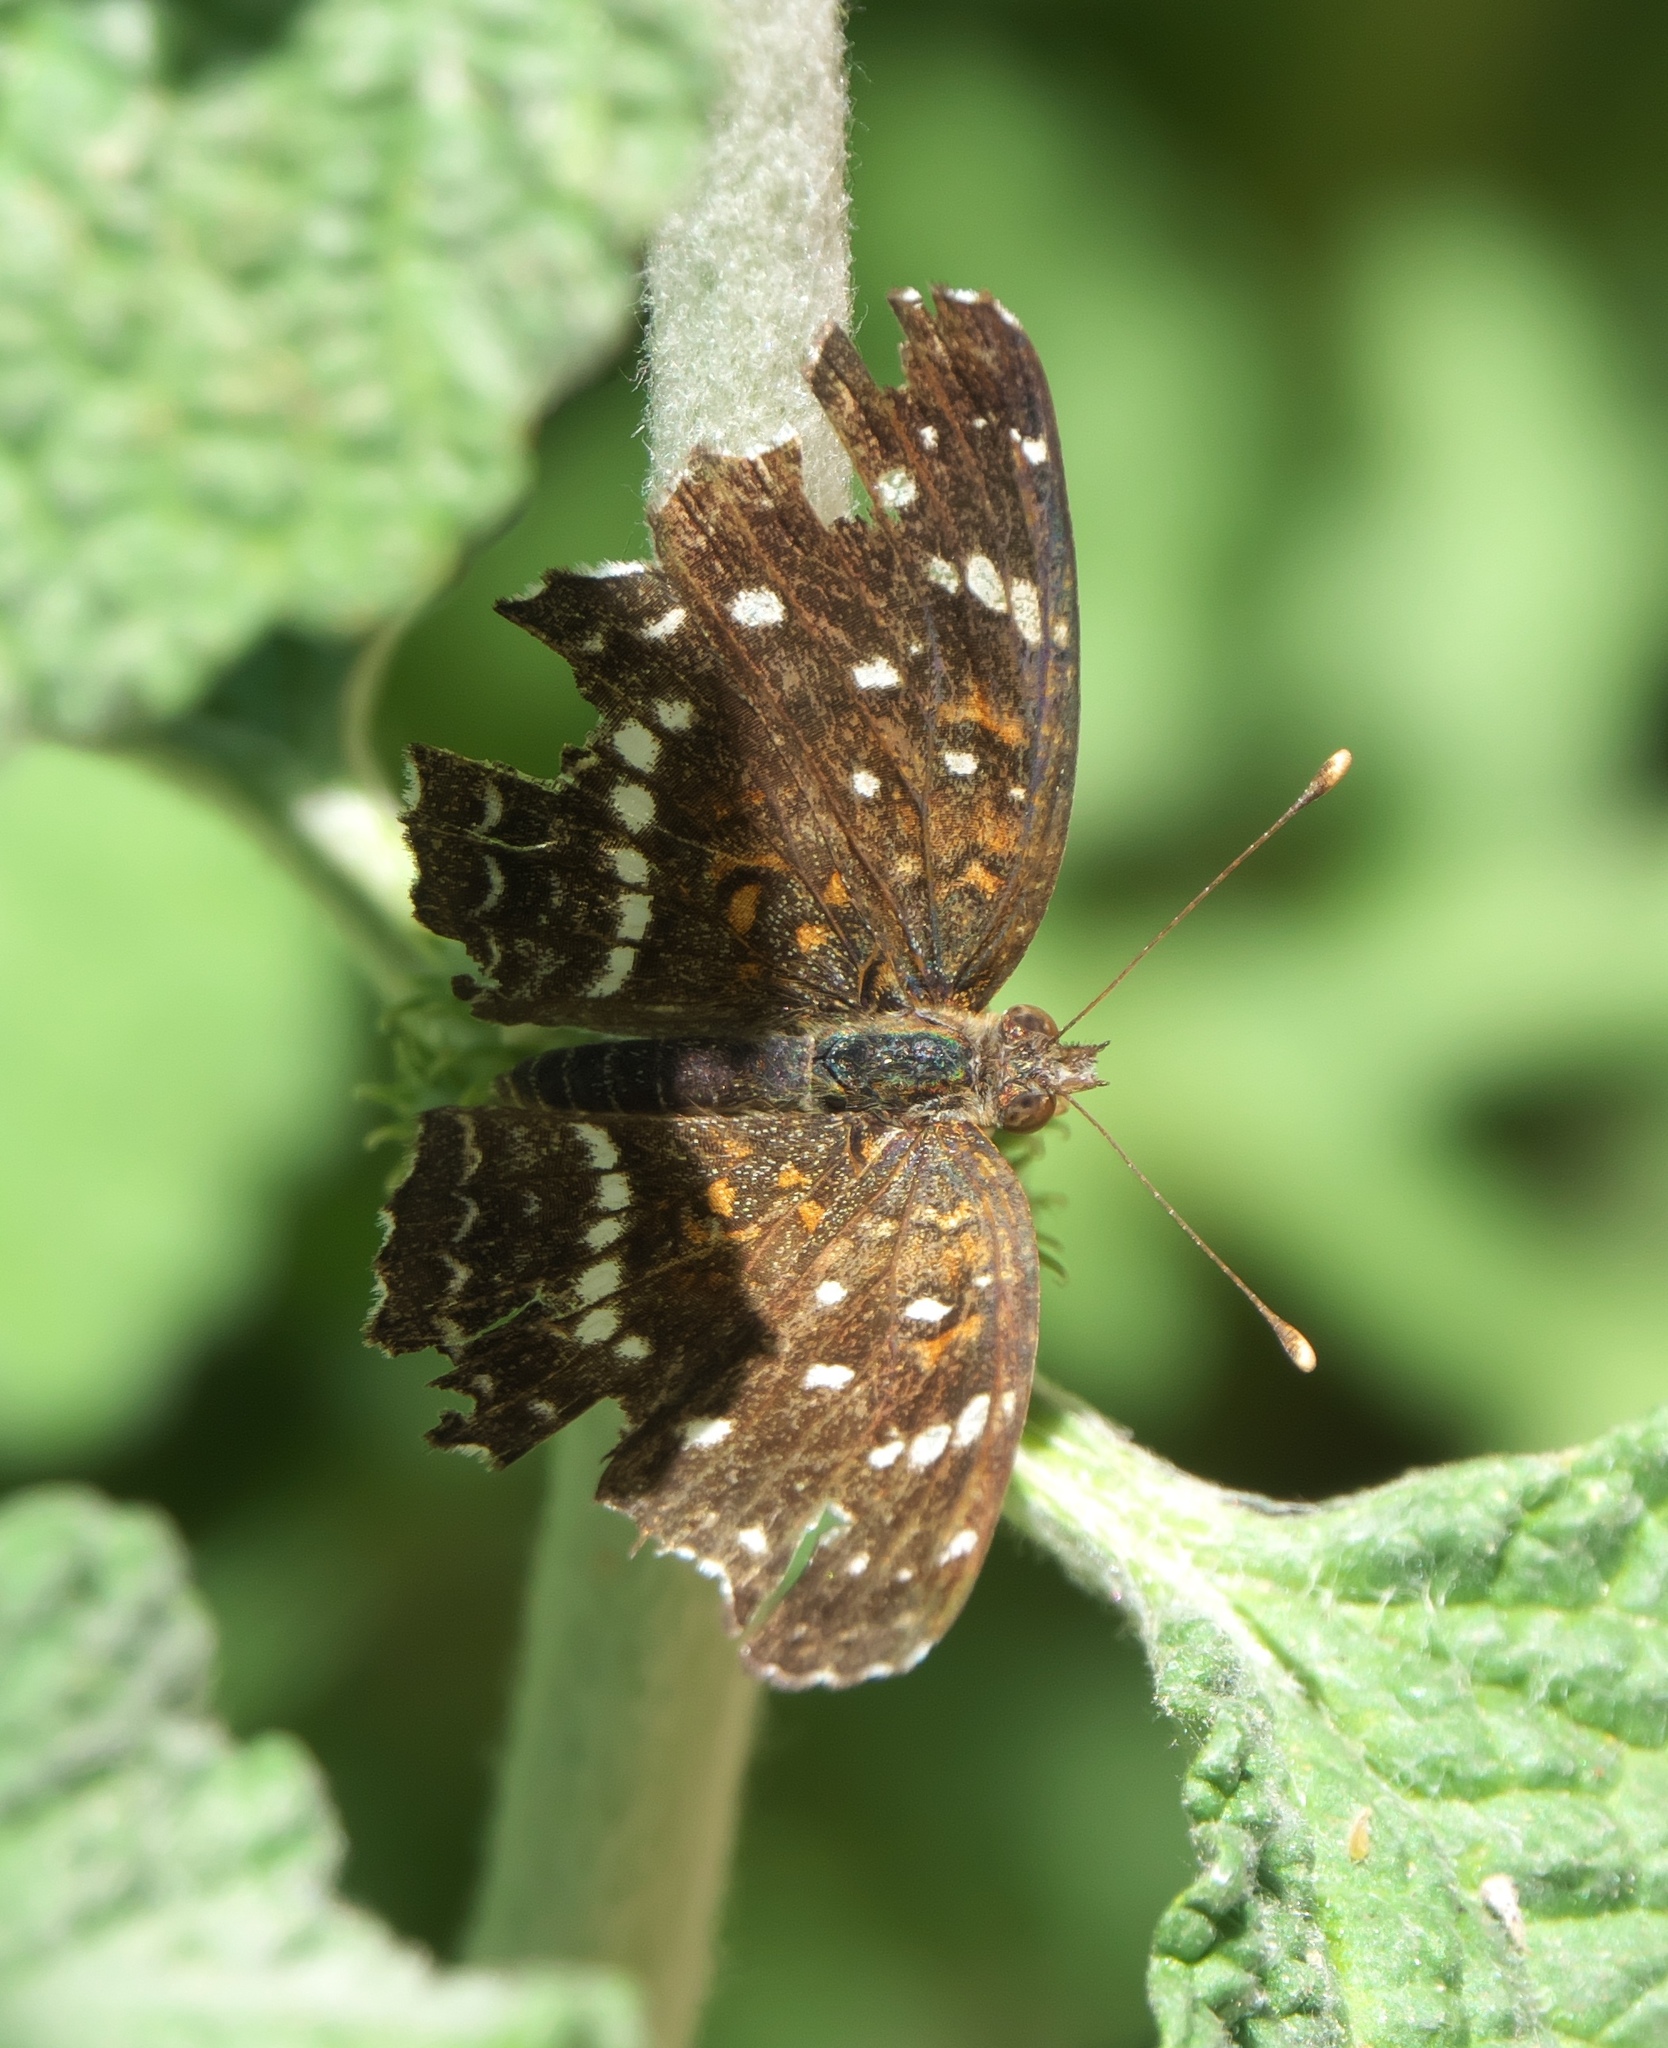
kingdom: Animalia
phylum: Arthropoda
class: Insecta
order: Lepidoptera
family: Nymphalidae
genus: Anthanassa
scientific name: Anthanassa texana
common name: Texan crescent
